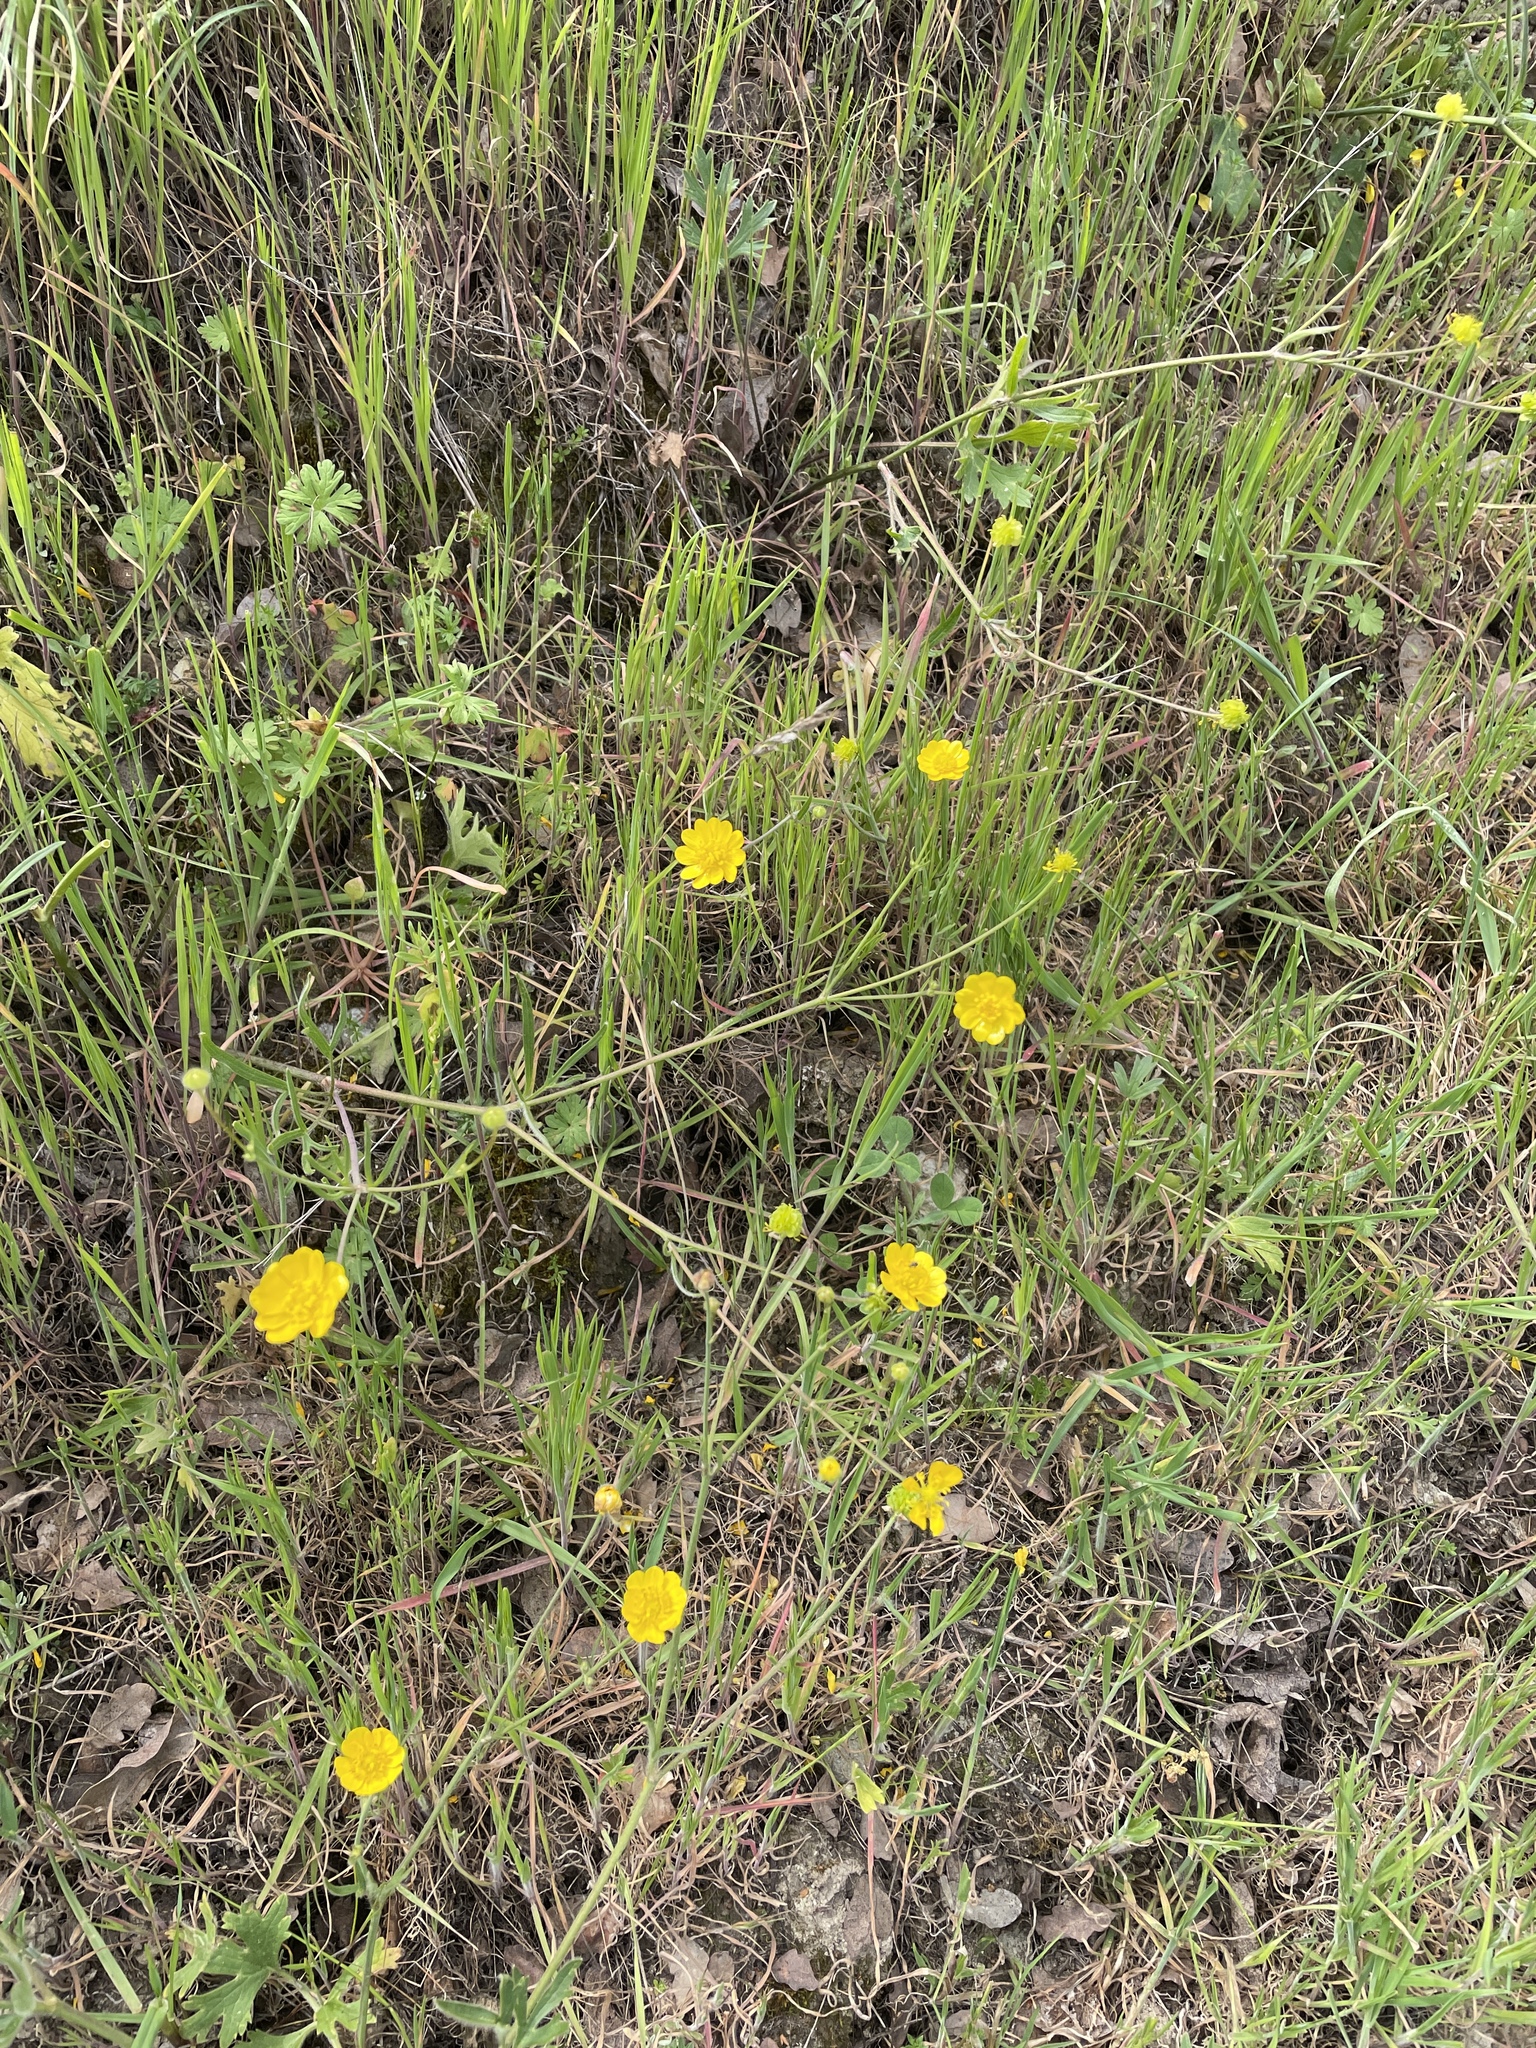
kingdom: Plantae
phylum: Tracheophyta
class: Magnoliopsida
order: Ranunculales
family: Ranunculaceae
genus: Ranunculus
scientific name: Ranunculus californicus
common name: California buttercup
